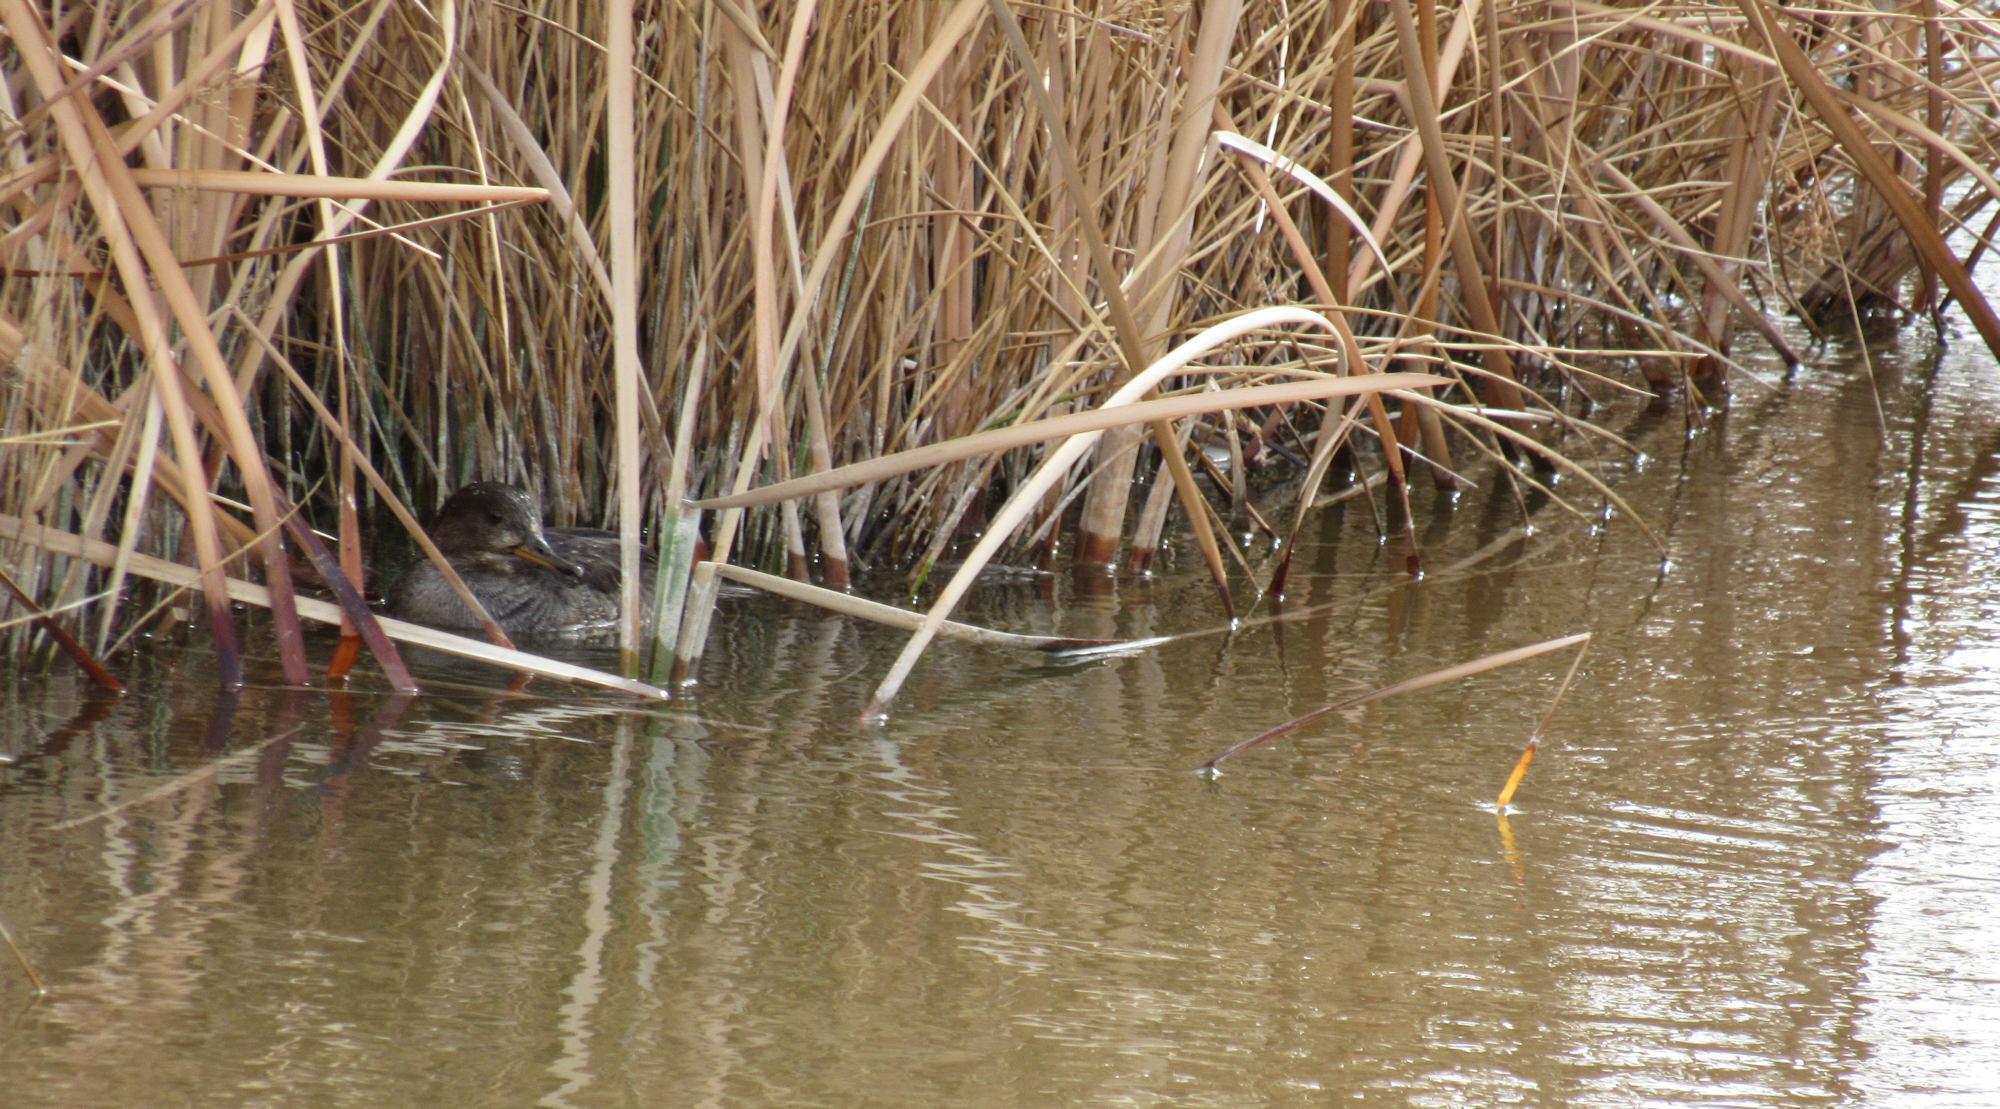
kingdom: Animalia
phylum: Chordata
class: Aves
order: Anseriformes
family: Anatidae
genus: Lophodytes
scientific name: Lophodytes cucullatus
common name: Hooded merganser
